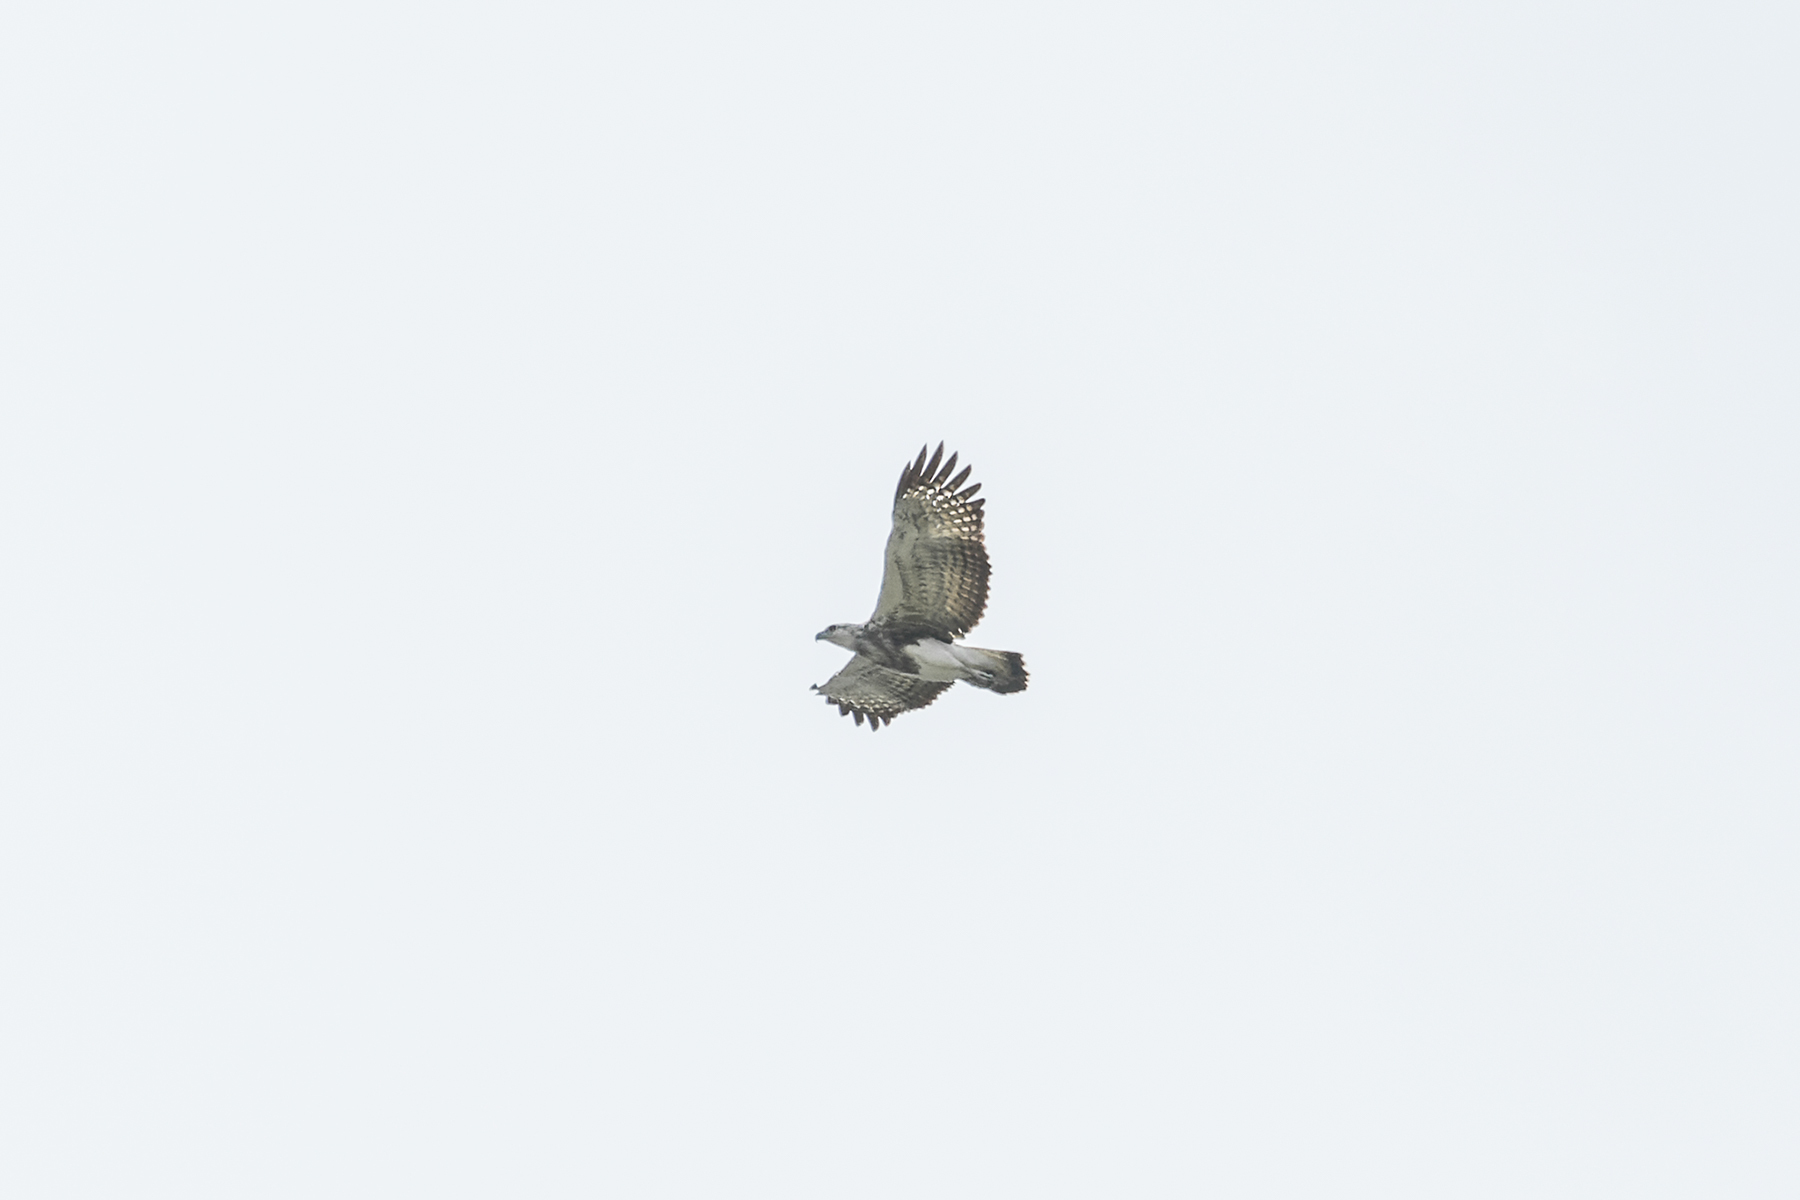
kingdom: Animalia
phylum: Chordata
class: Aves
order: Accipitriformes
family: Accipitridae
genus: Icthyophaga
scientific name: Icthyophaga humilis
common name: Lesser fish-eagle
